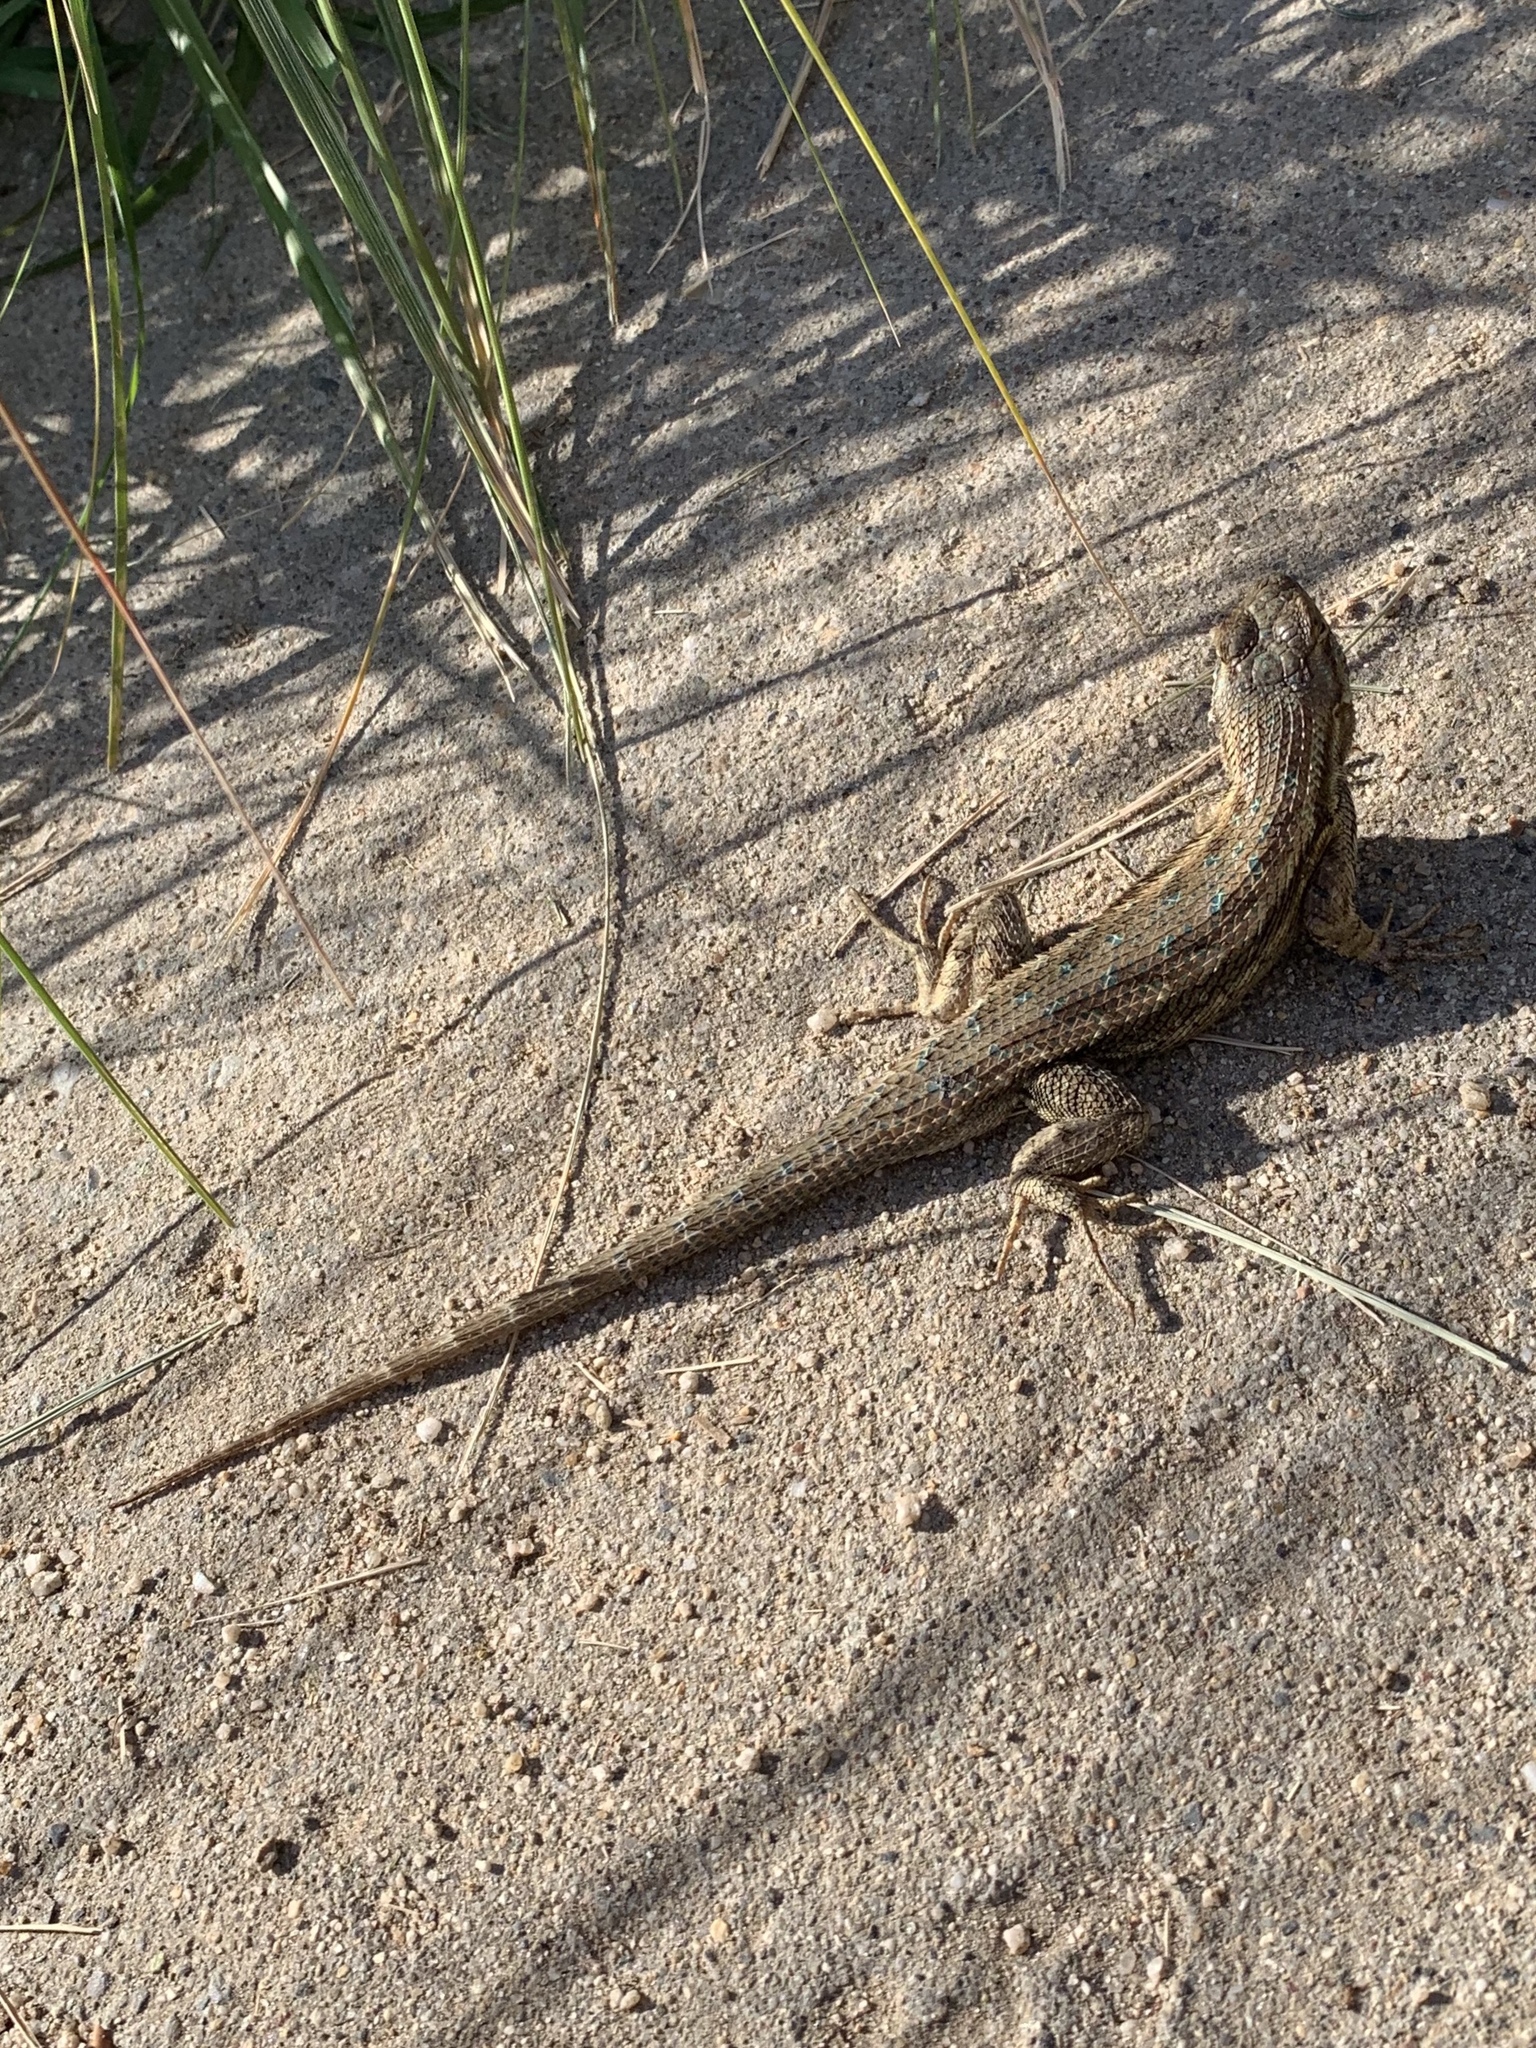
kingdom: Animalia
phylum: Chordata
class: Squamata
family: Phrynosomatidae
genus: Sceloporus
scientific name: Sceloporus occidentalis
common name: Western fence lizard
